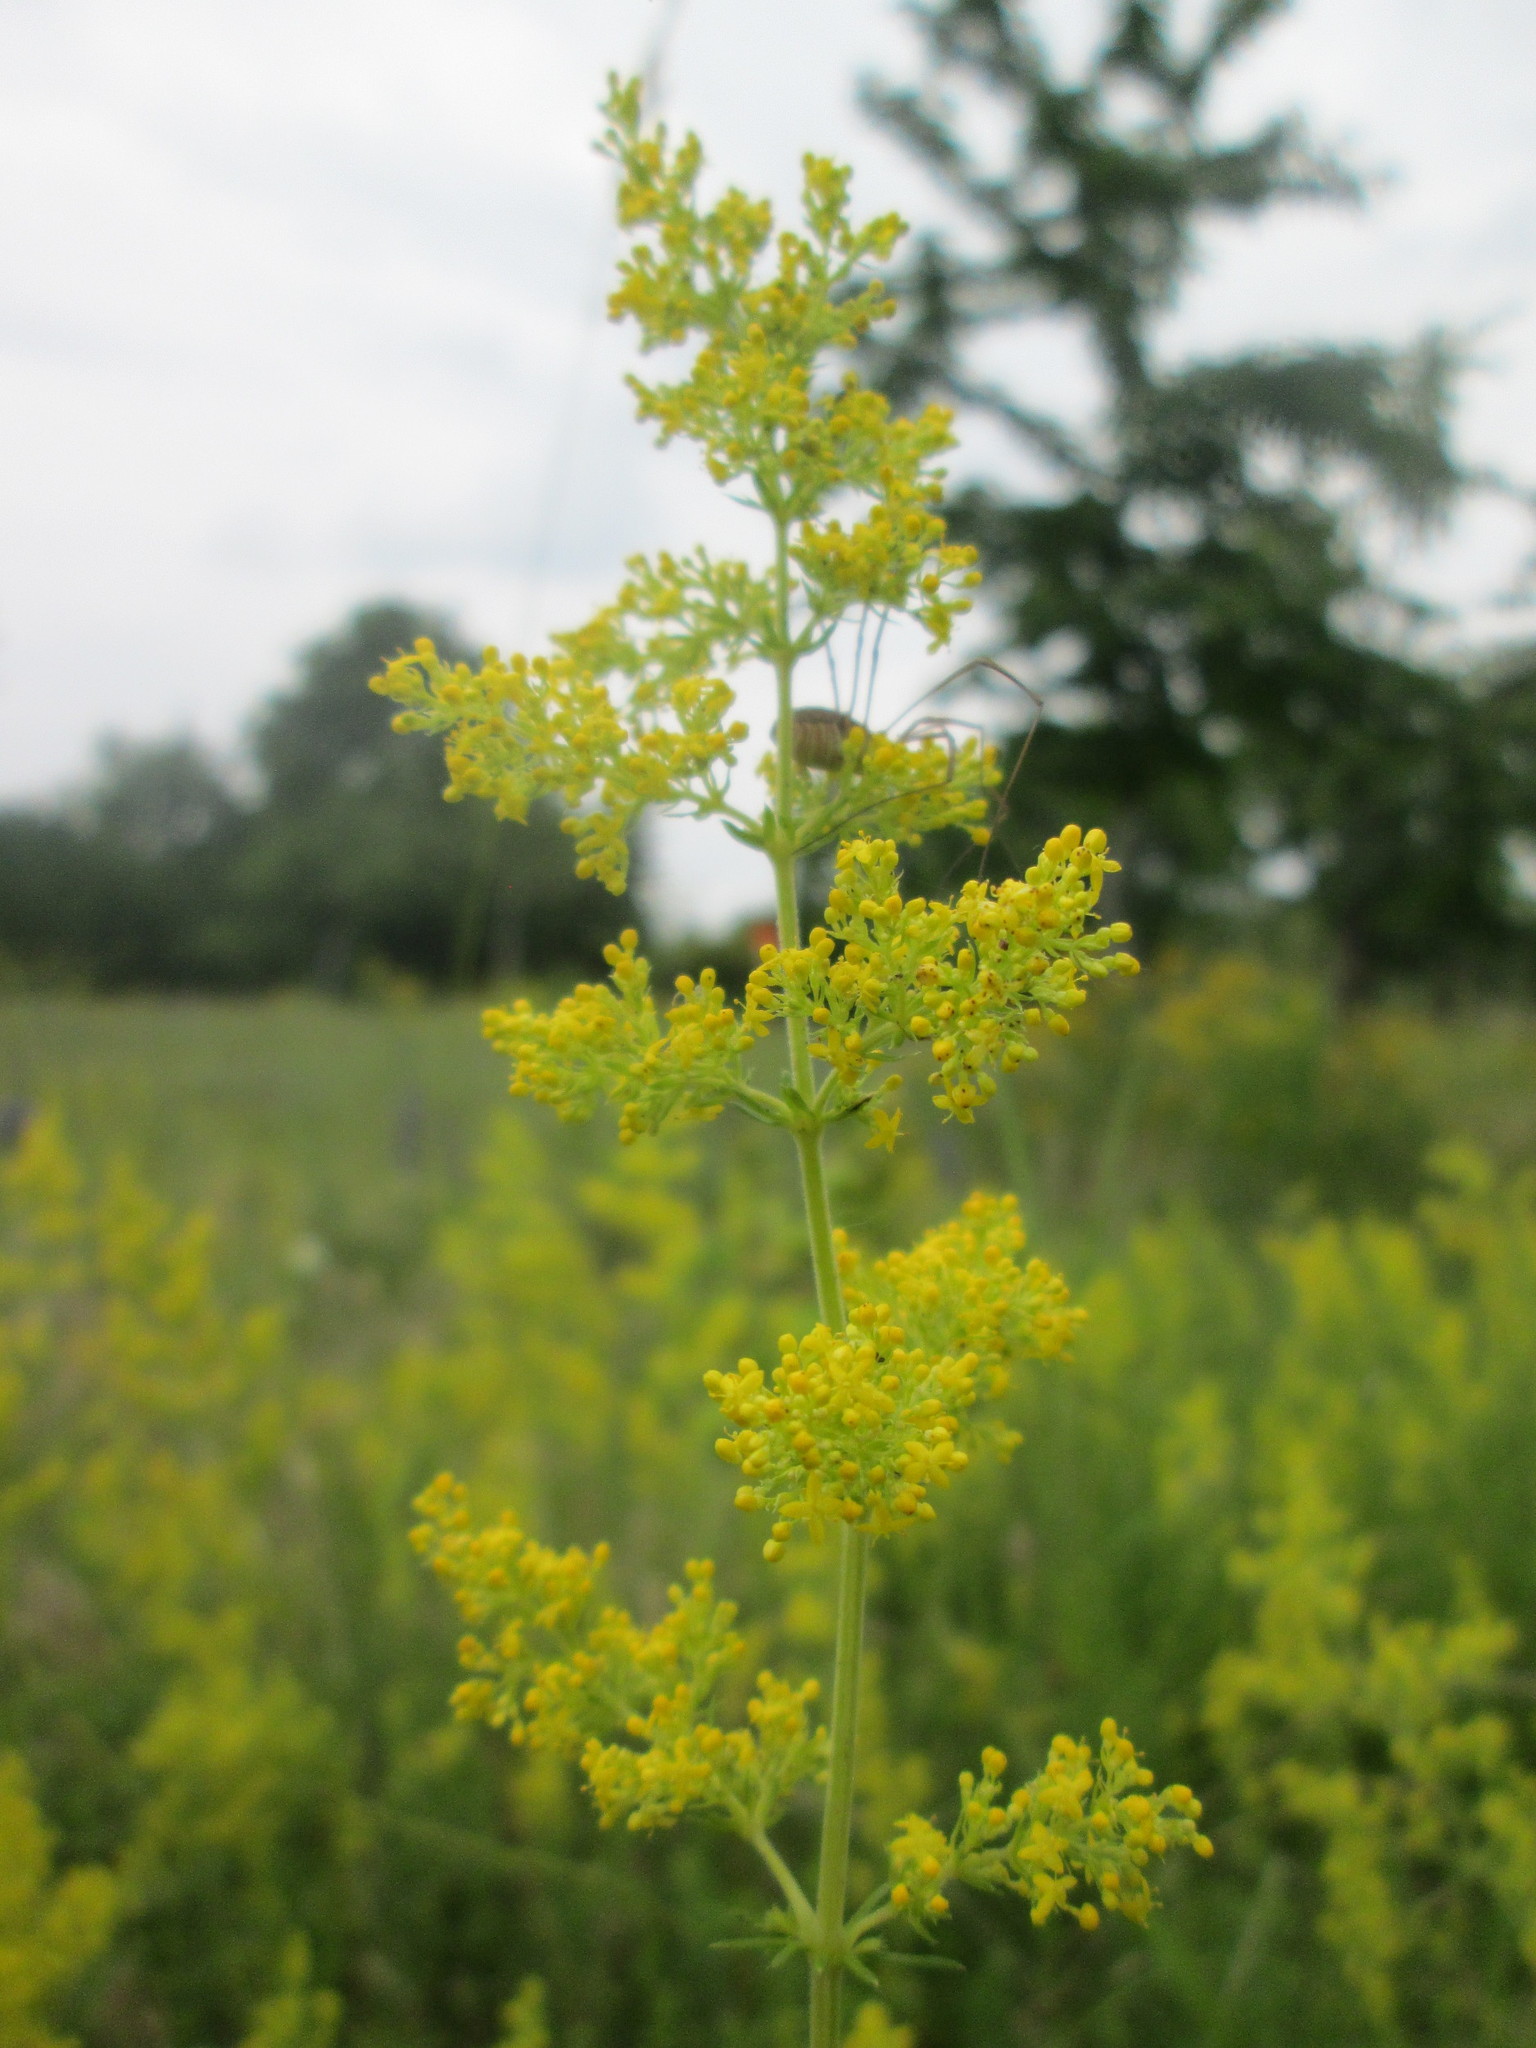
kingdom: Plantae
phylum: Tracheophyta
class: Magnoliopsida
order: Gentianales
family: Rubiaceae
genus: Galium
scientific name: Galium verum
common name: Lady's bedstraw
